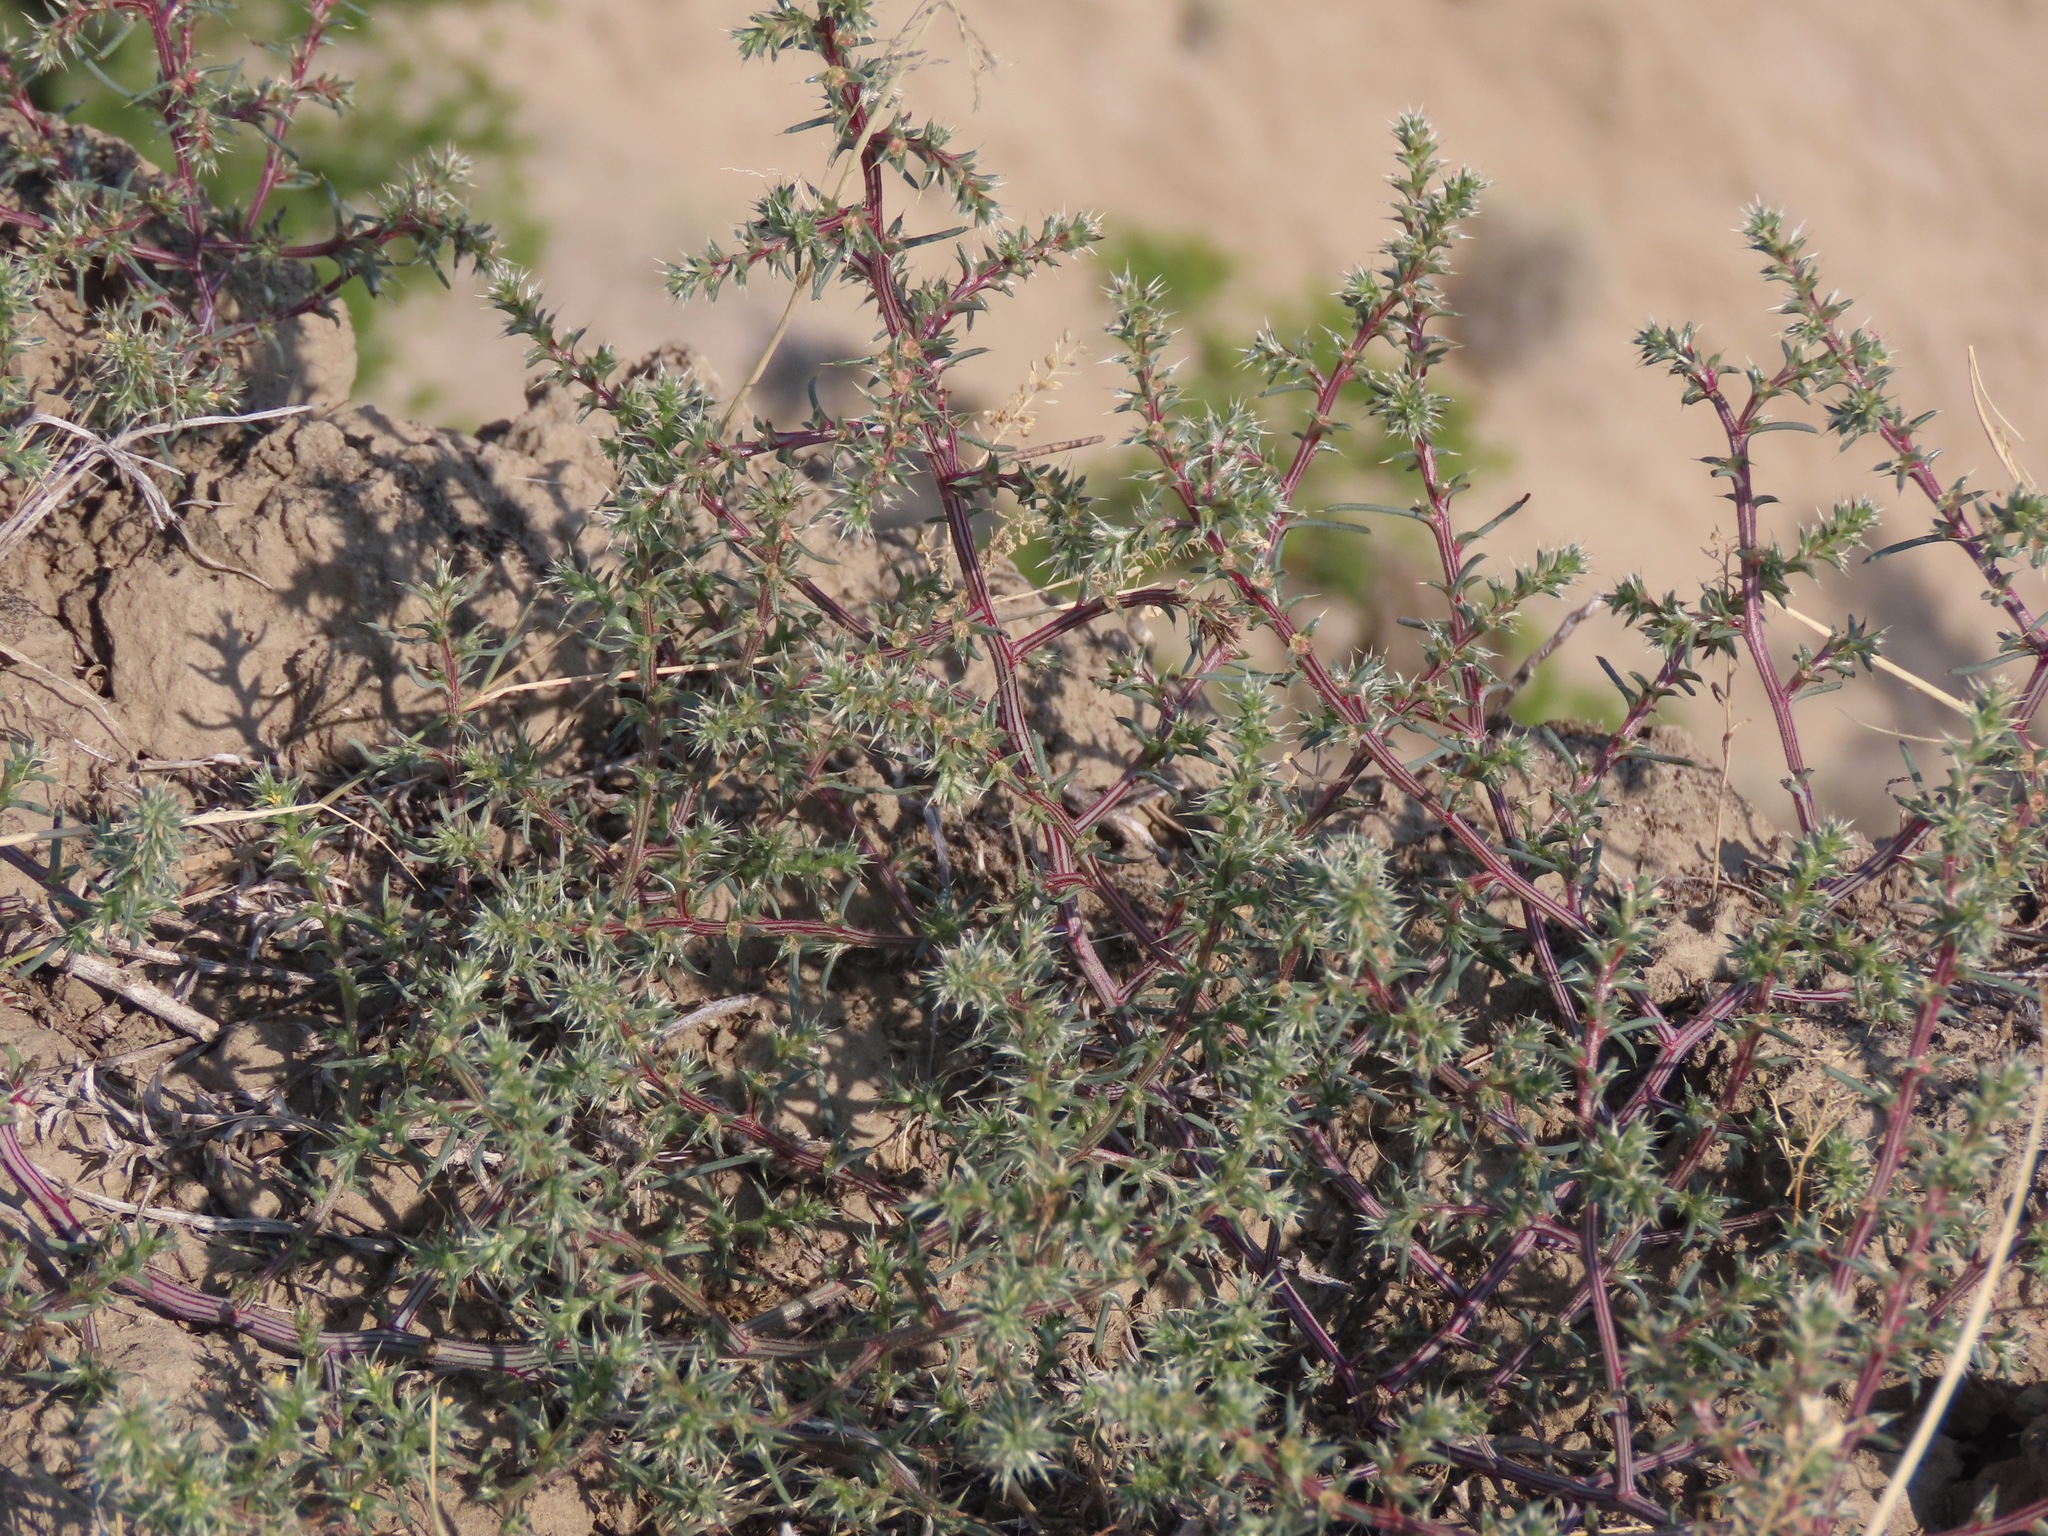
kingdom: Plantae
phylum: Tracheophyta
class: Magnoliopsida
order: Caryophyllales
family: Amaranthaceae
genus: Salsola
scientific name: Salsola tragus
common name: Prickly russian thistle
